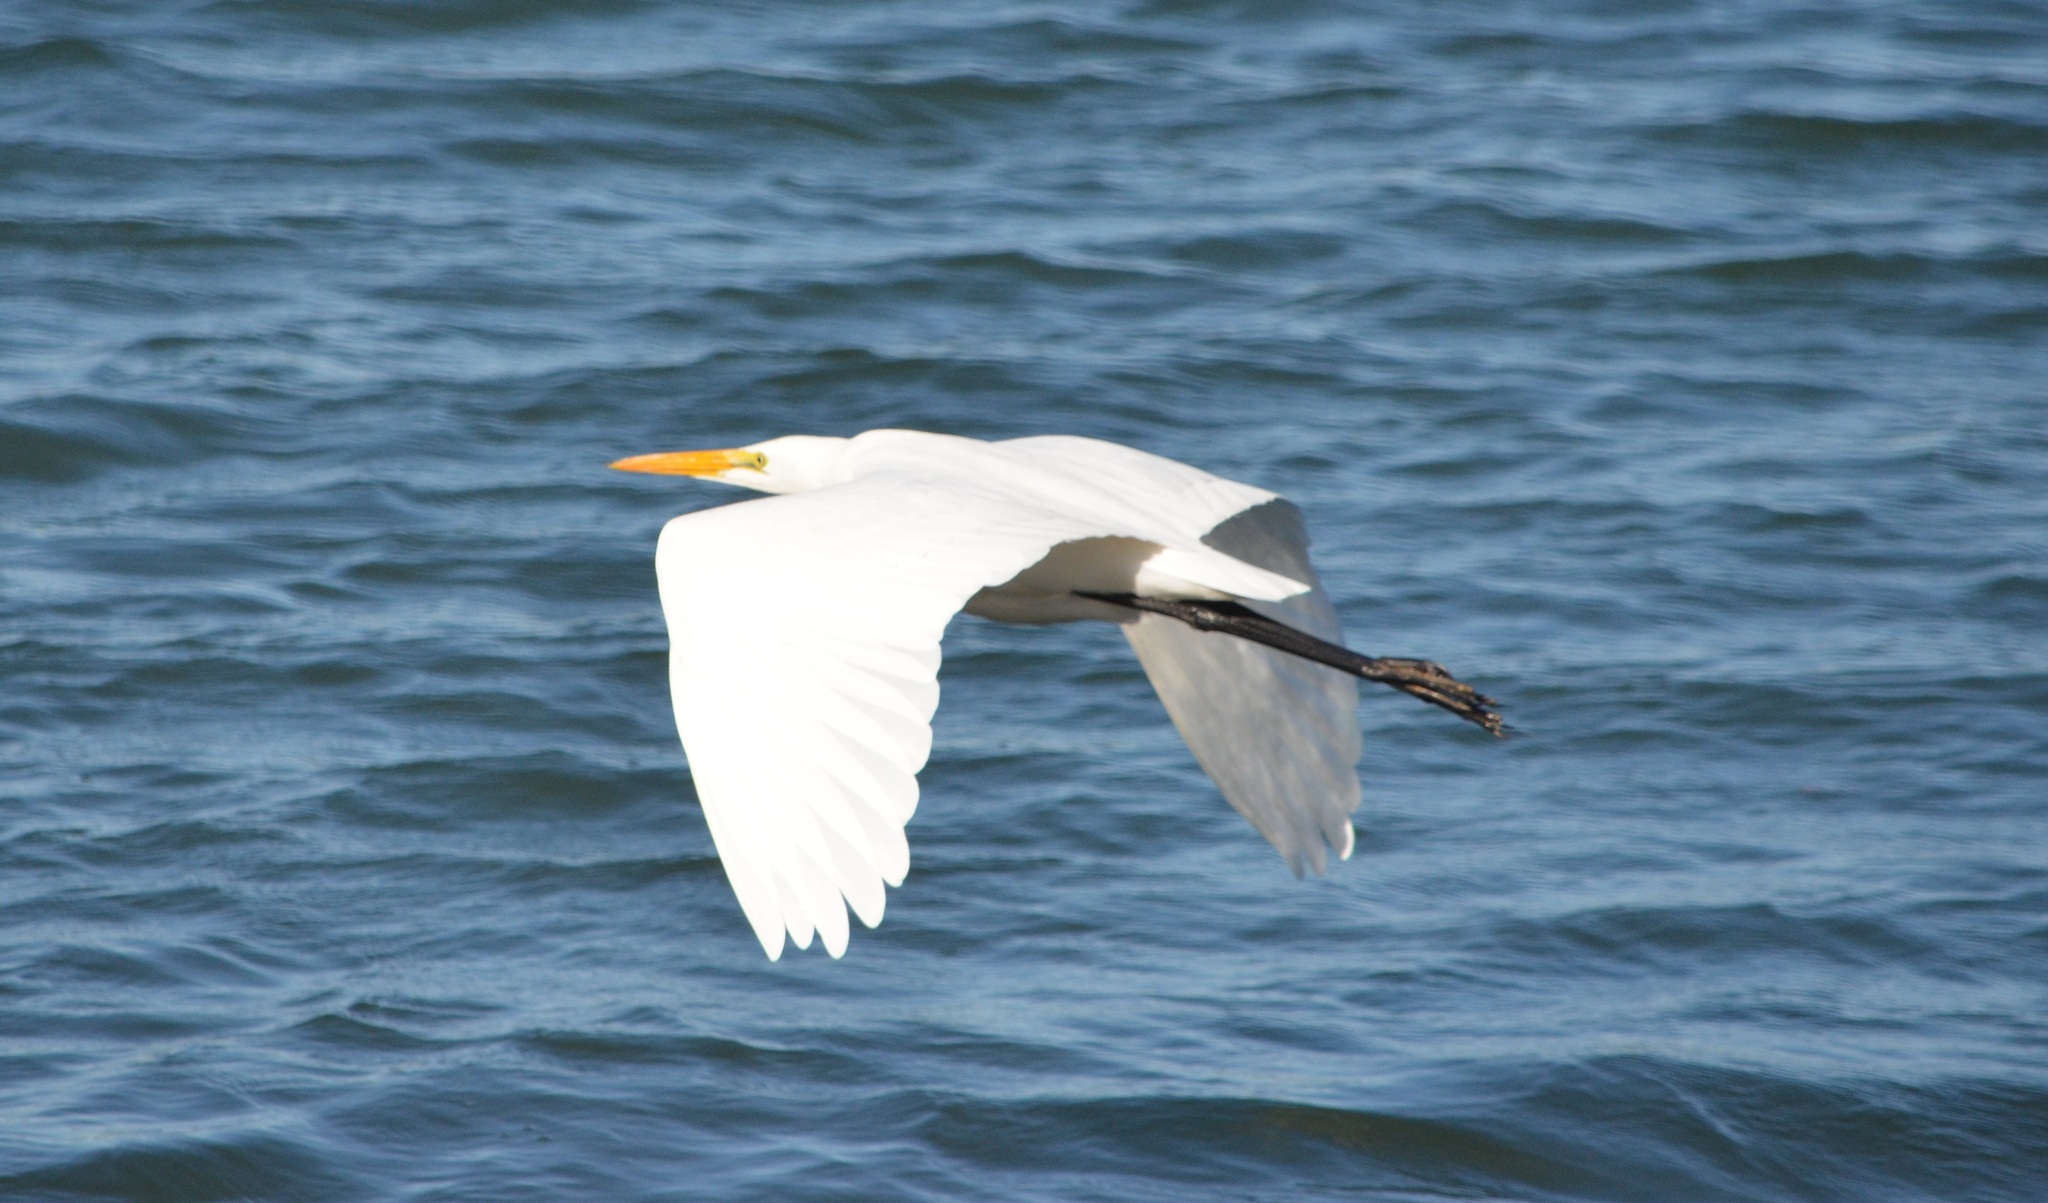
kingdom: Animalia
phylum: Chordata
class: Aves
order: Pelecaniformes
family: Ardeidae
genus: Ardea
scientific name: Ardea alba
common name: Great egret
